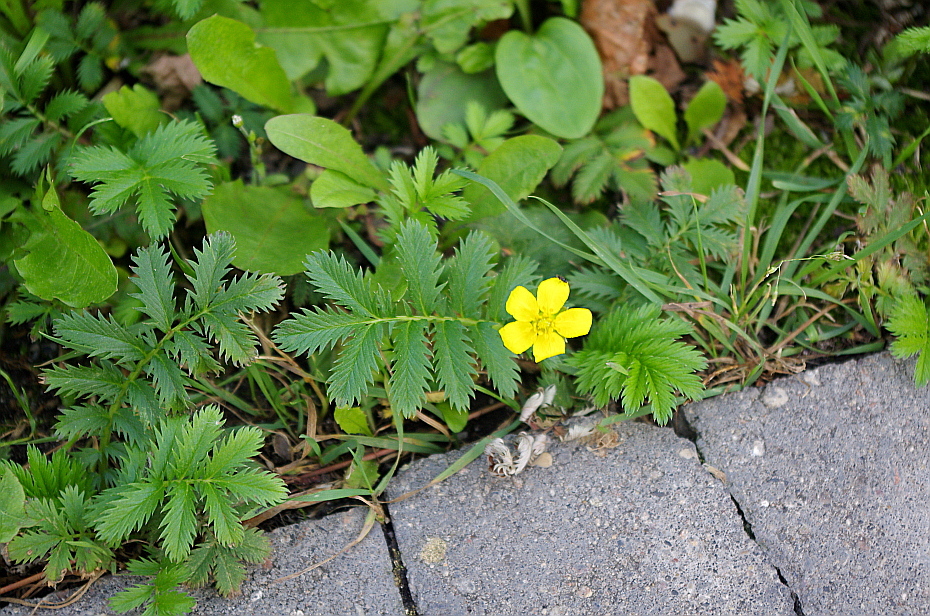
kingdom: Plantae
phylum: Tracheophyta
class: Magnoliopsida
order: Rosales
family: Rosaceae
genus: Argentina
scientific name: Argentina anserina
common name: Common silverweed
